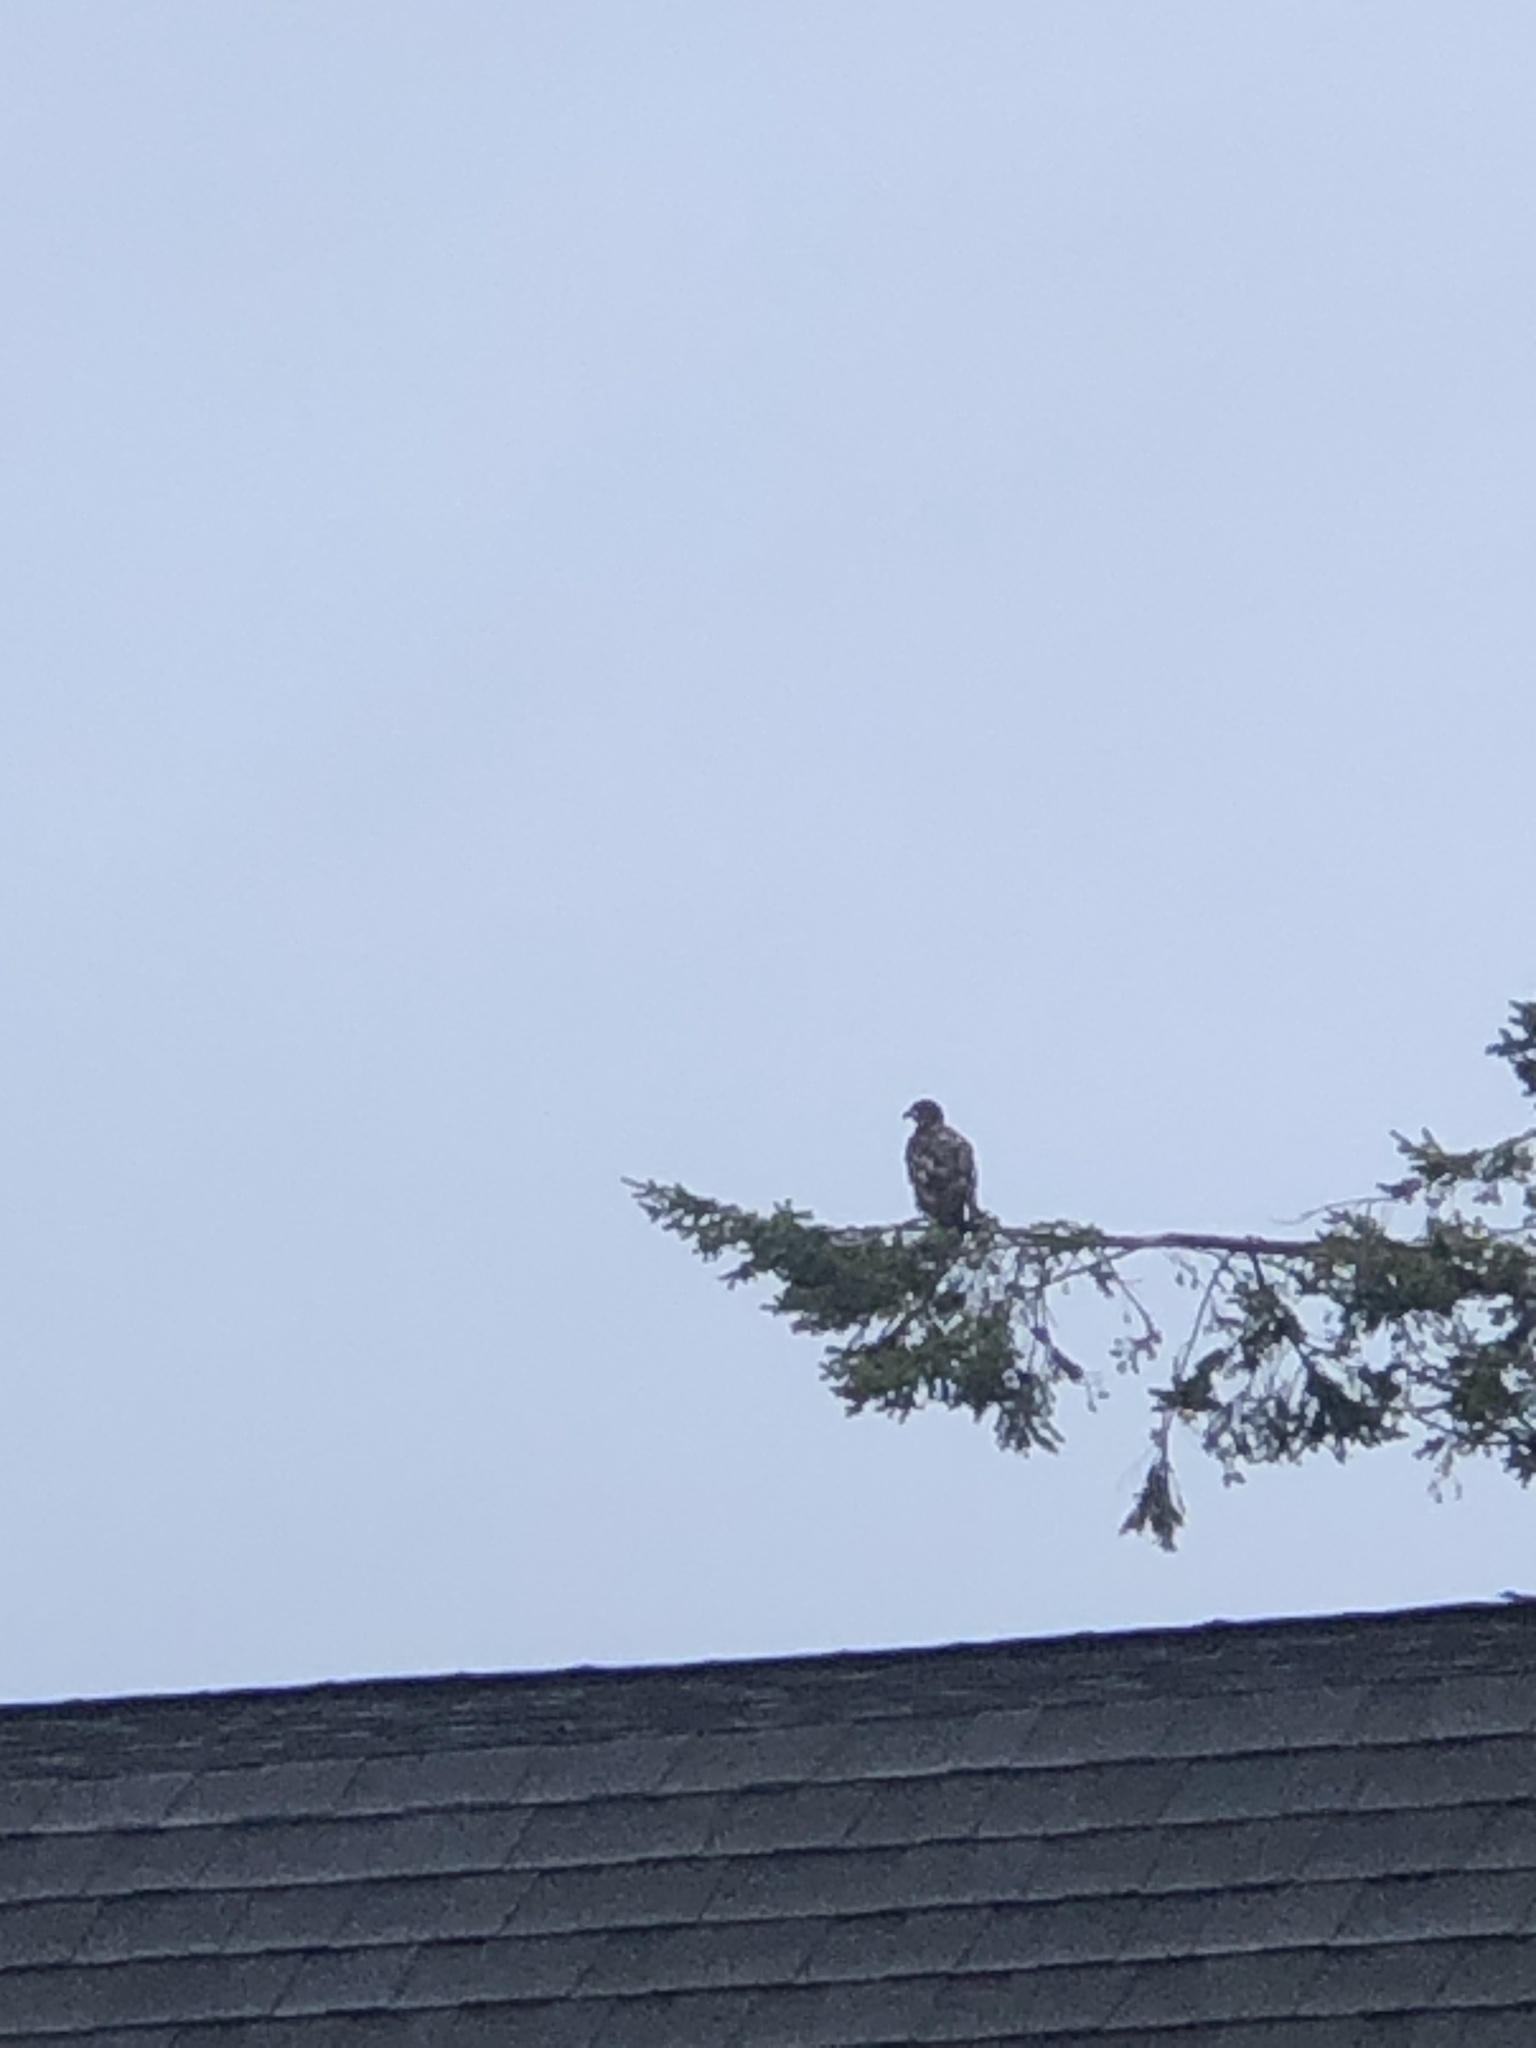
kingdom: Animalia
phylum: Chordata
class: Aves
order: Accipitriformes
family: Accipitridae
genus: Haliaeetus
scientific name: Haliaeetus leucocephalus
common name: Bald eagle
